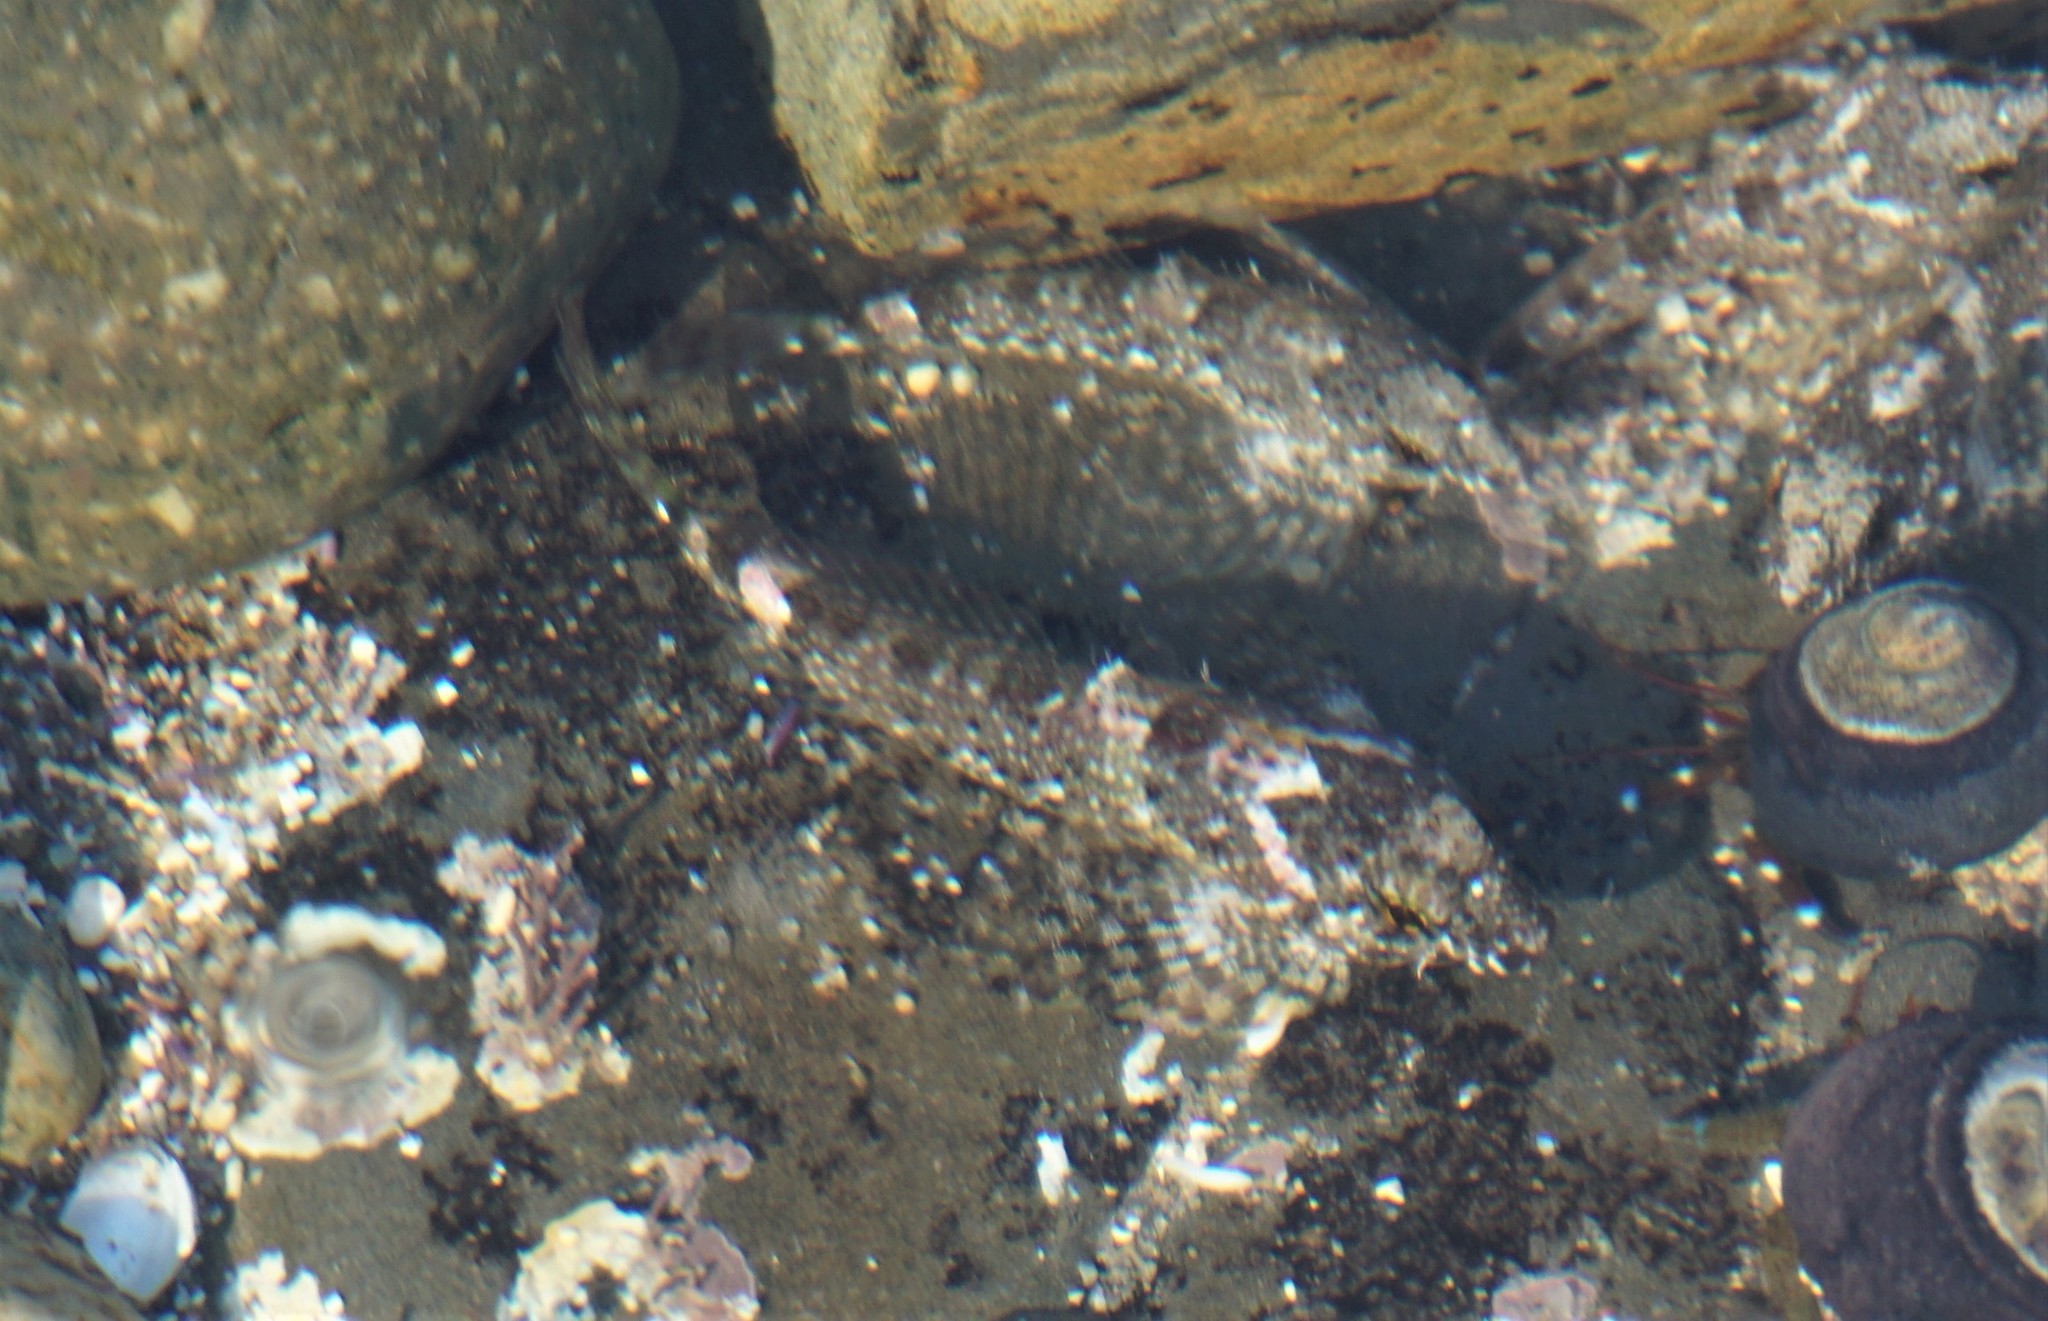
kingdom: Animalia
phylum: Chordata
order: Scorpaeniformes
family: Cottidae
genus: Clinocottus
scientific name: Clinocottus analis
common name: Woolly sculpin
